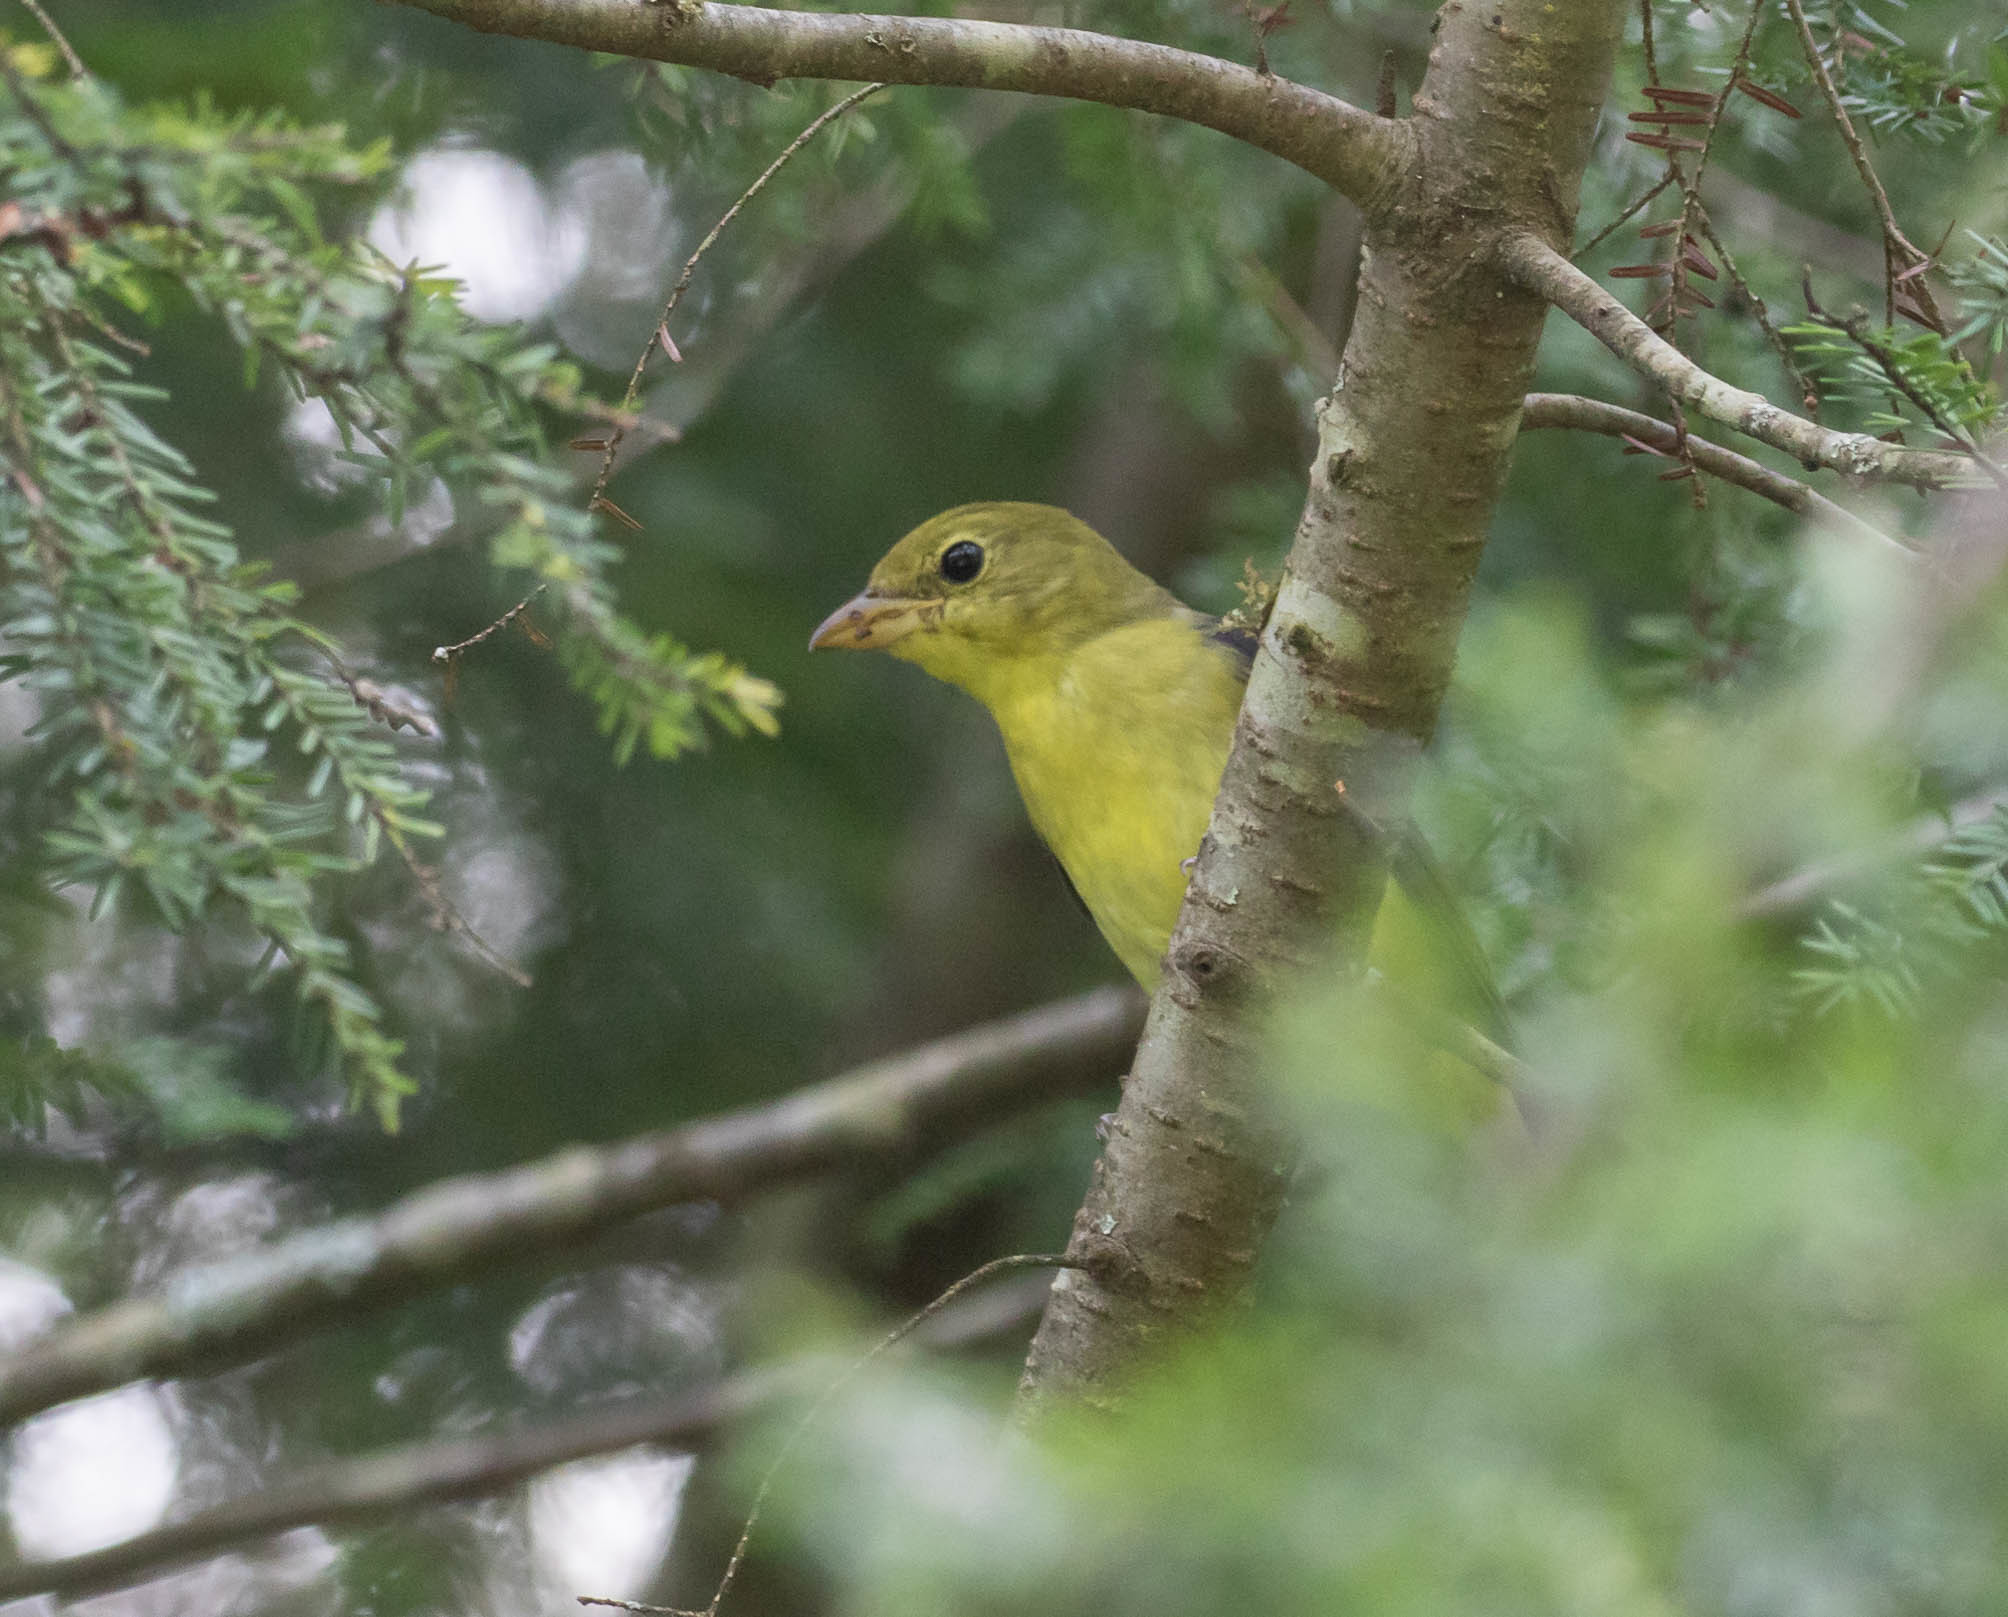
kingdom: Animalia
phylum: Chordata
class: Aves
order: Passeriformes
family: Cardinalidae
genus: Piranga
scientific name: Piranga olivacea
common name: Scarlet tanager
